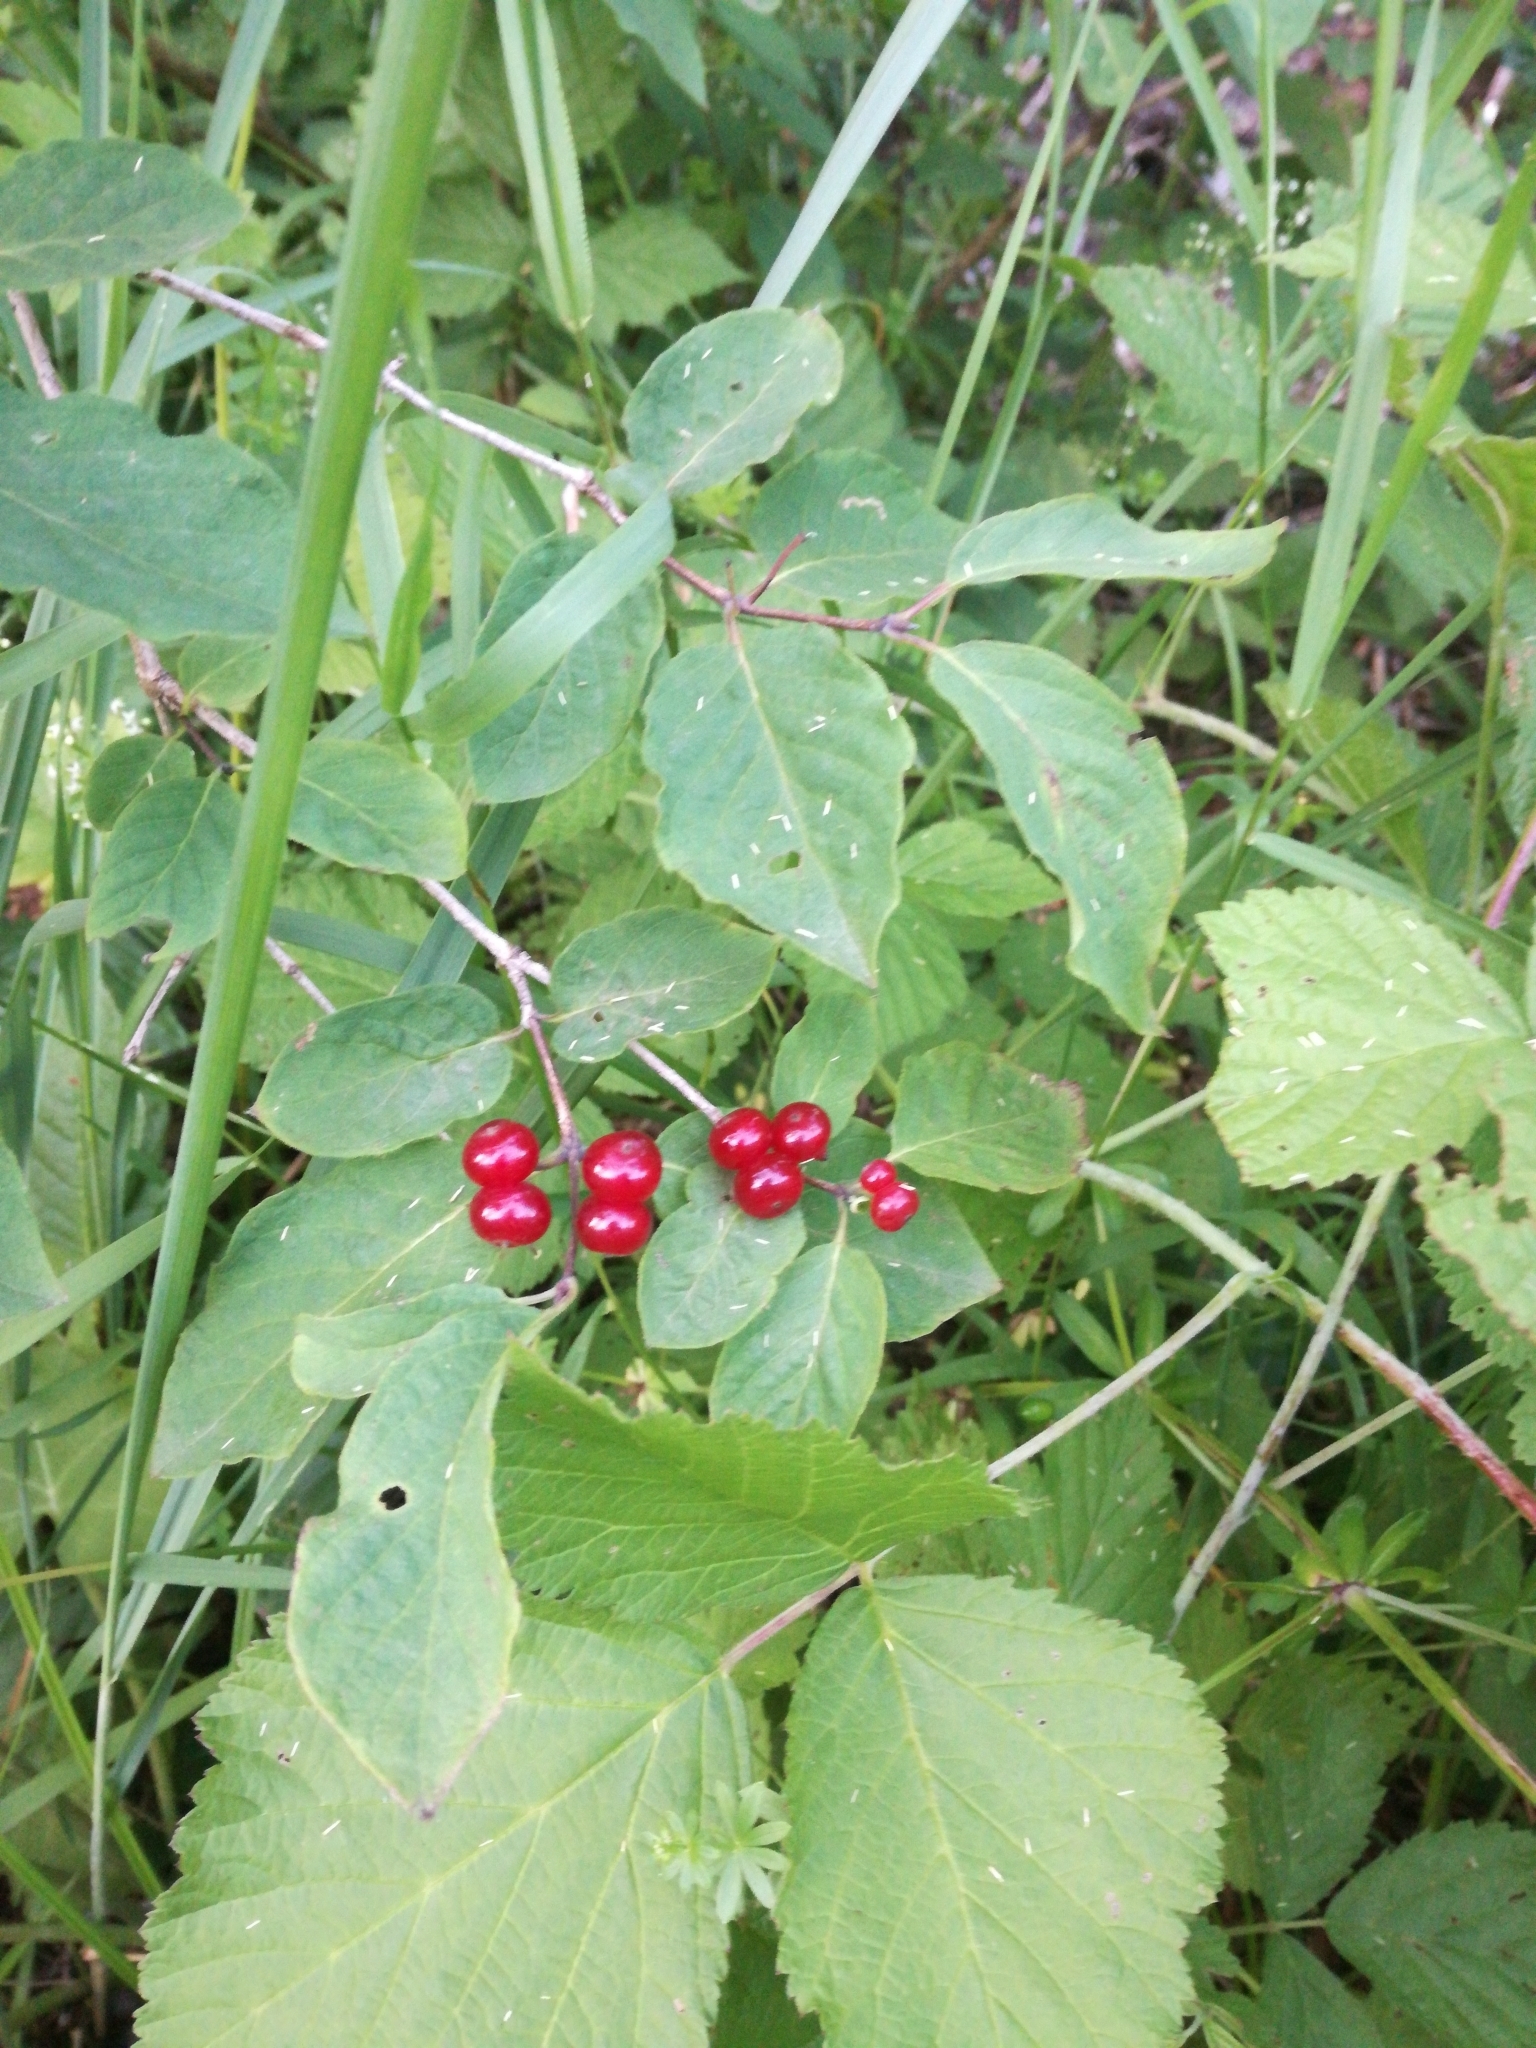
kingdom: Plantae
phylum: Tracheophyta
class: Magnoliopsida
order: Dipsacales
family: Caprifoliaceae
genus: Lonicera
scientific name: Lonicera xylosteum
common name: Fly honeysuckle
